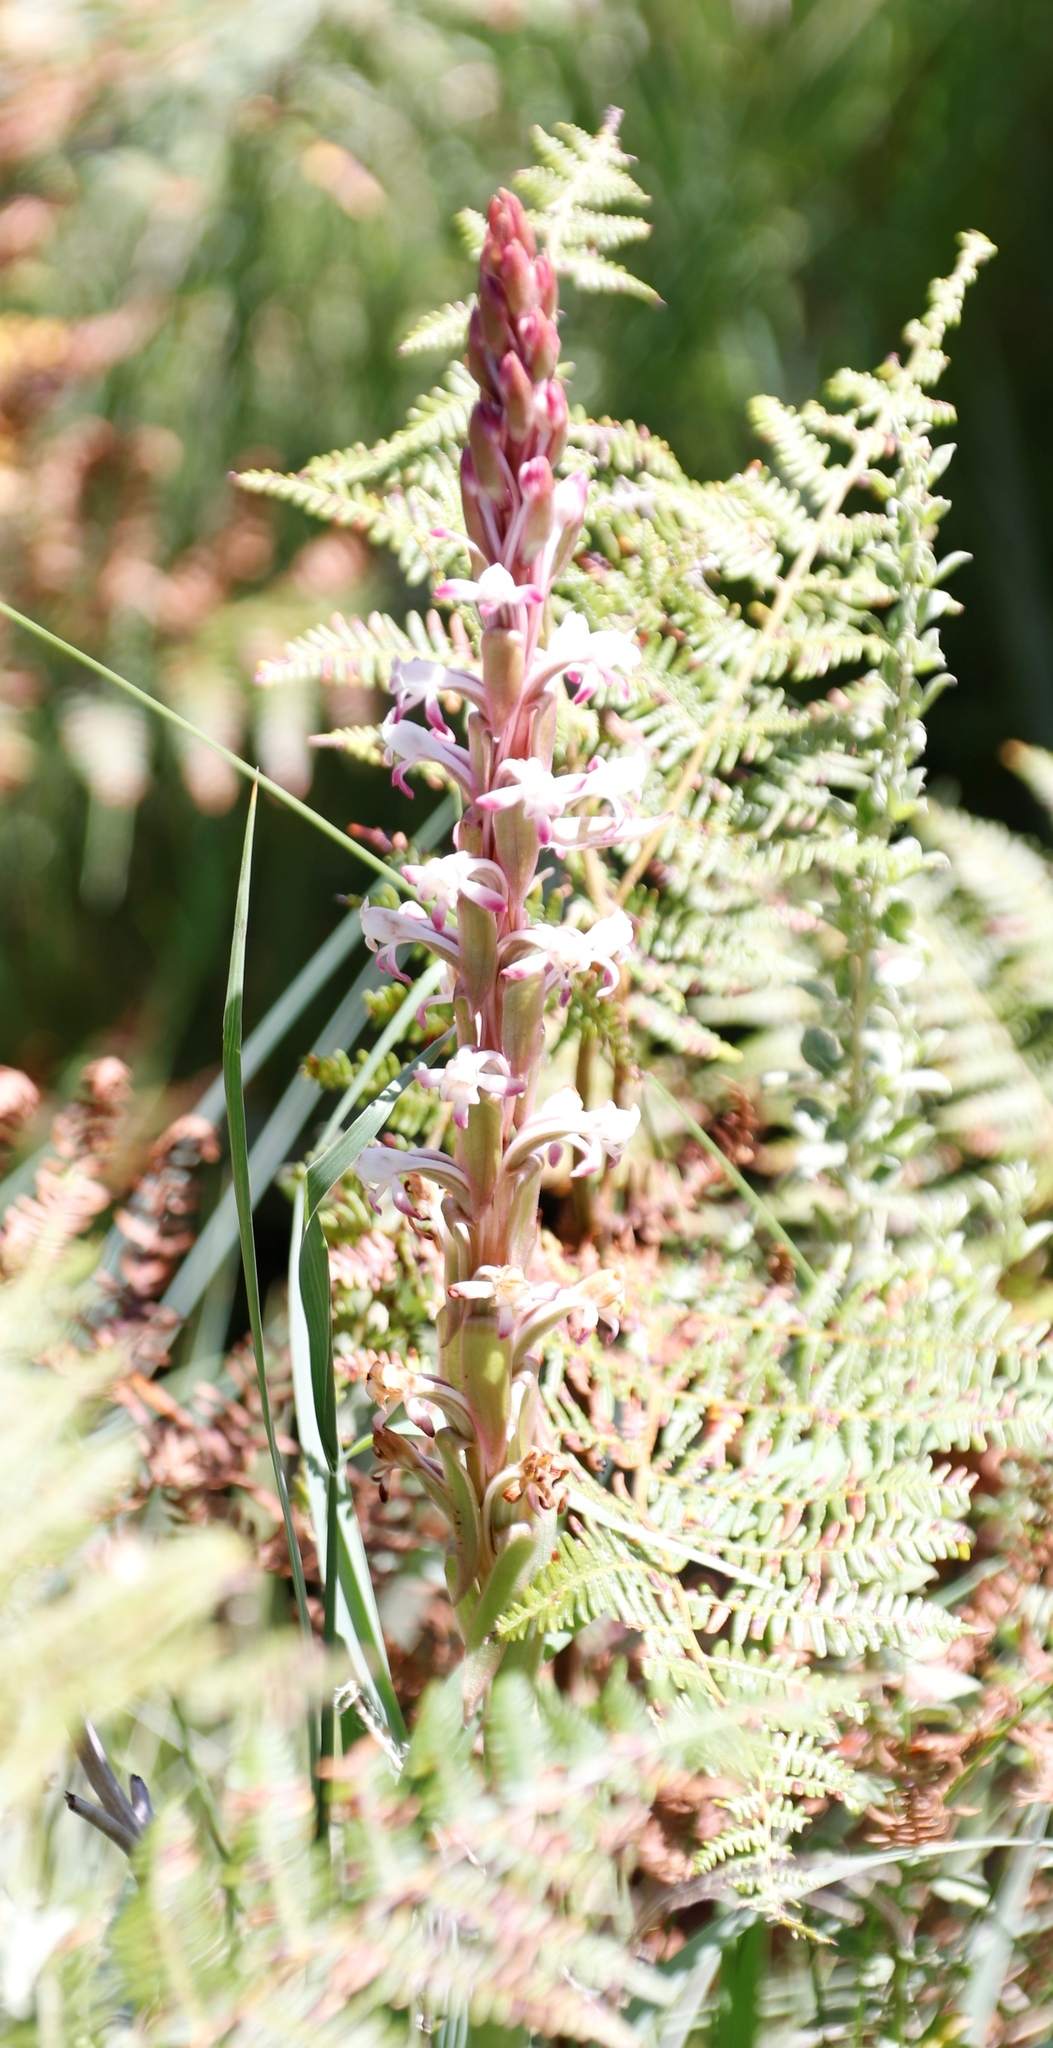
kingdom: Plantae
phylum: Tracheophyta
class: Liliopsida
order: Asparagales
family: Orchidaceae
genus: Satyrium
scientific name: Satyrium longicauda
